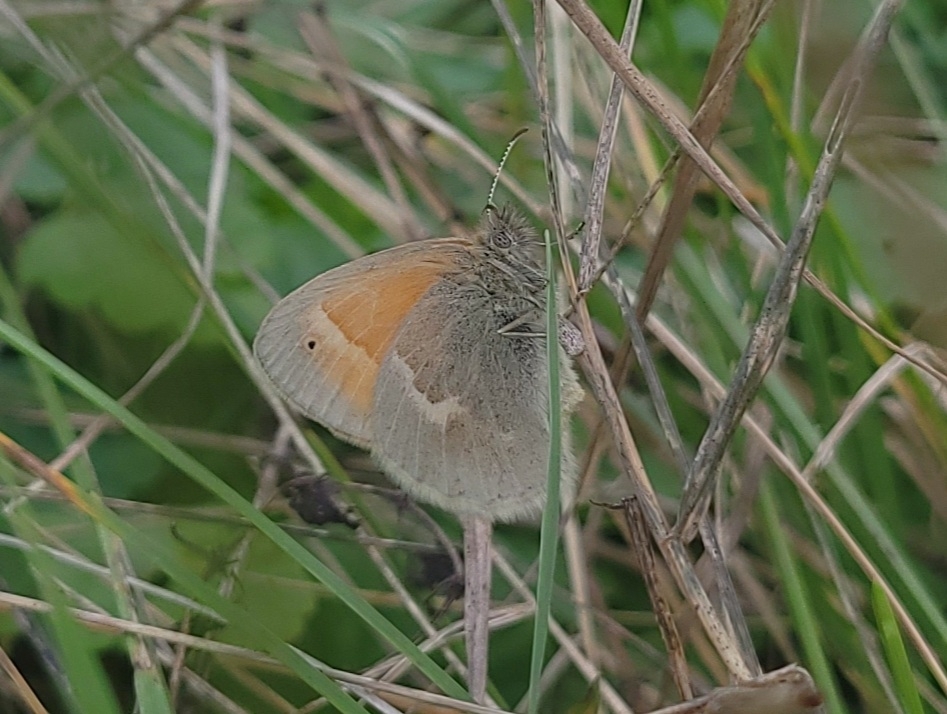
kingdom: Animalia
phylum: Arthropoda
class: Insecta
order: Lepidoptera
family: Nymphalidae
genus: Coenonympha
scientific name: Coenonympha california
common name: Common ringlet
